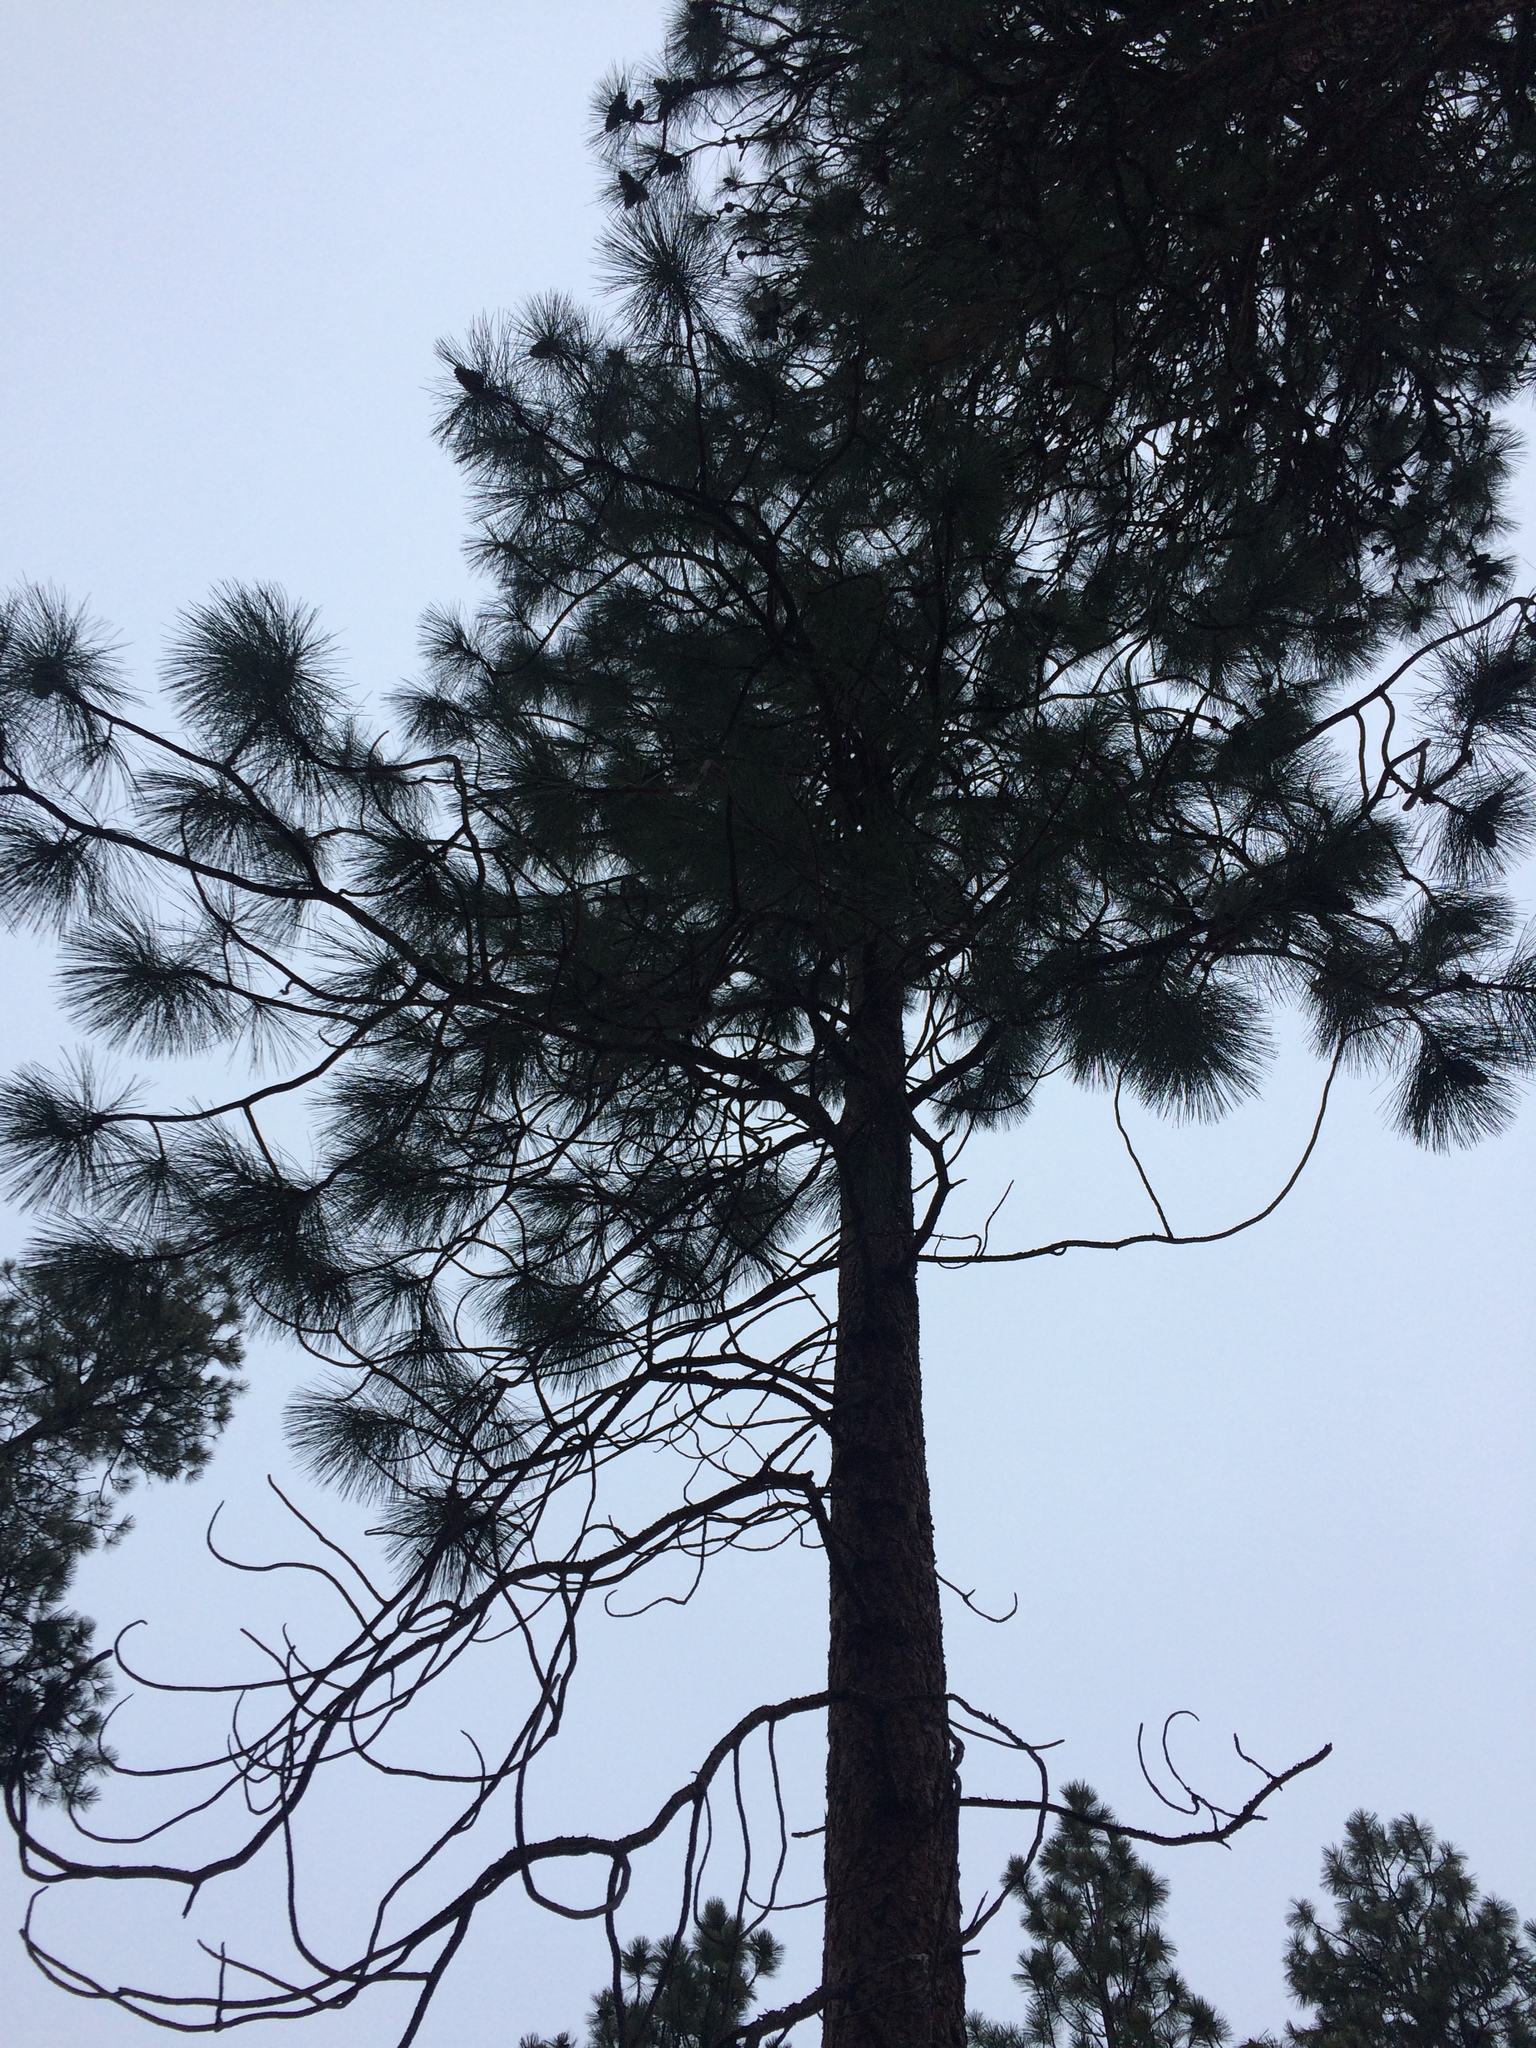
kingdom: Plantae
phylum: Tracheophyta
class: Pinopsida
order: Pinales
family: Pinaceae
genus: Pinus
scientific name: Pinus ponderosa
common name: Western yellow-pine
